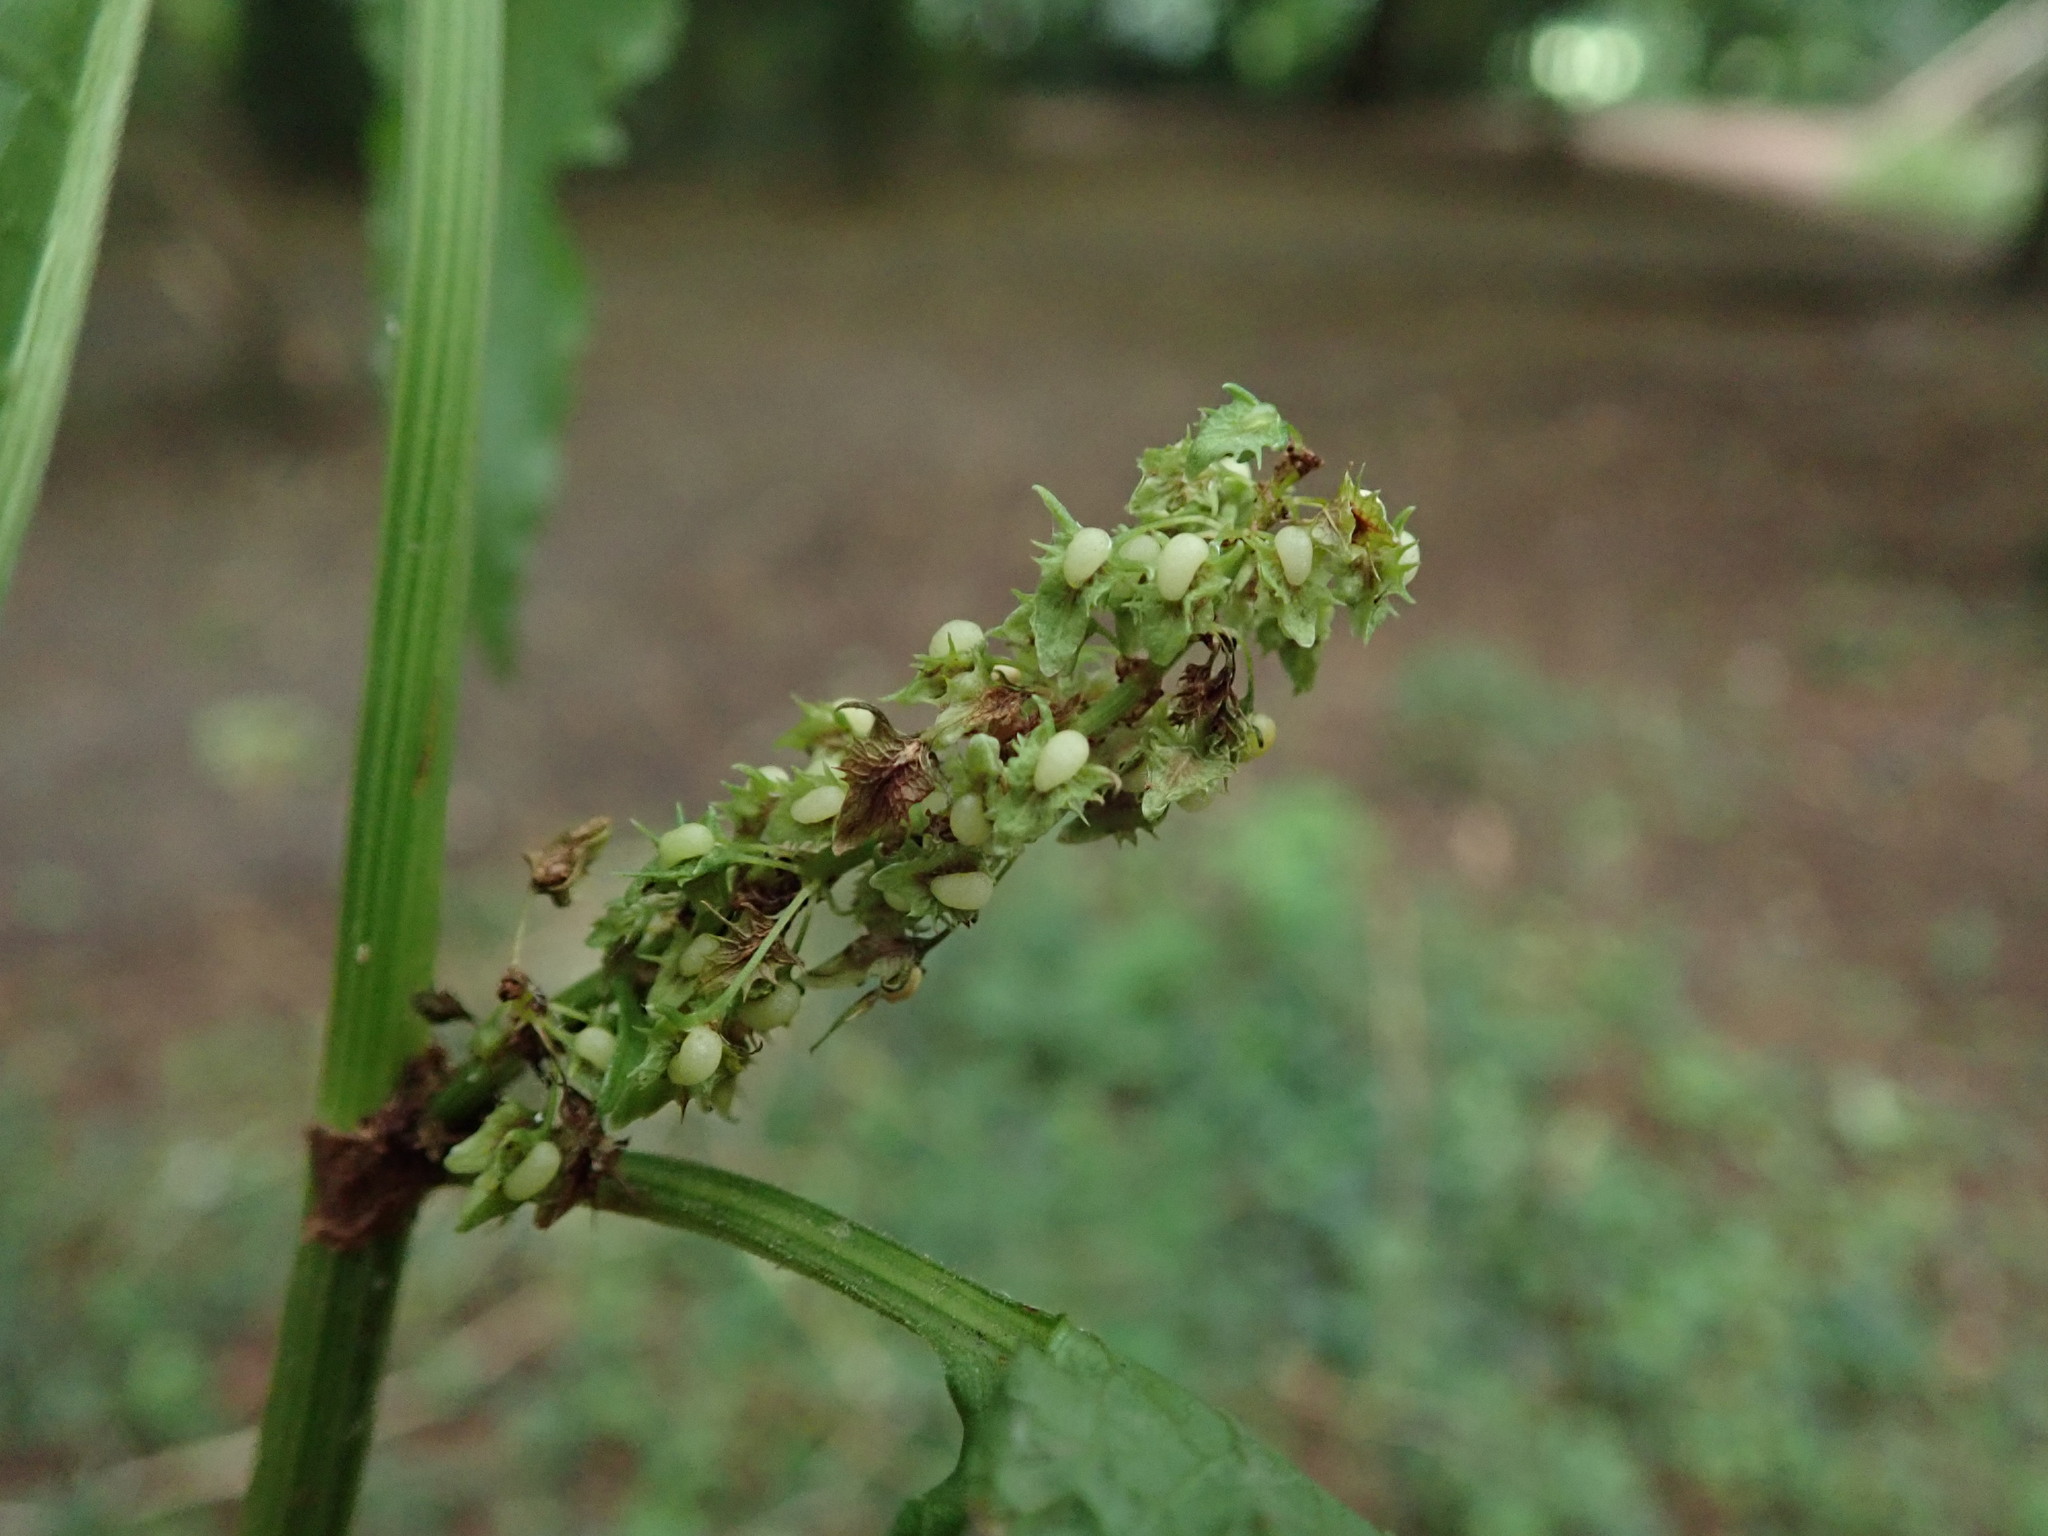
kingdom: Plantae
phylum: Tracheophyta
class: Magnoliopsida
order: Caryophyllales
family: Polygonaceae
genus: Rumex
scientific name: Rumex obtusifolius
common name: Bitter dock
